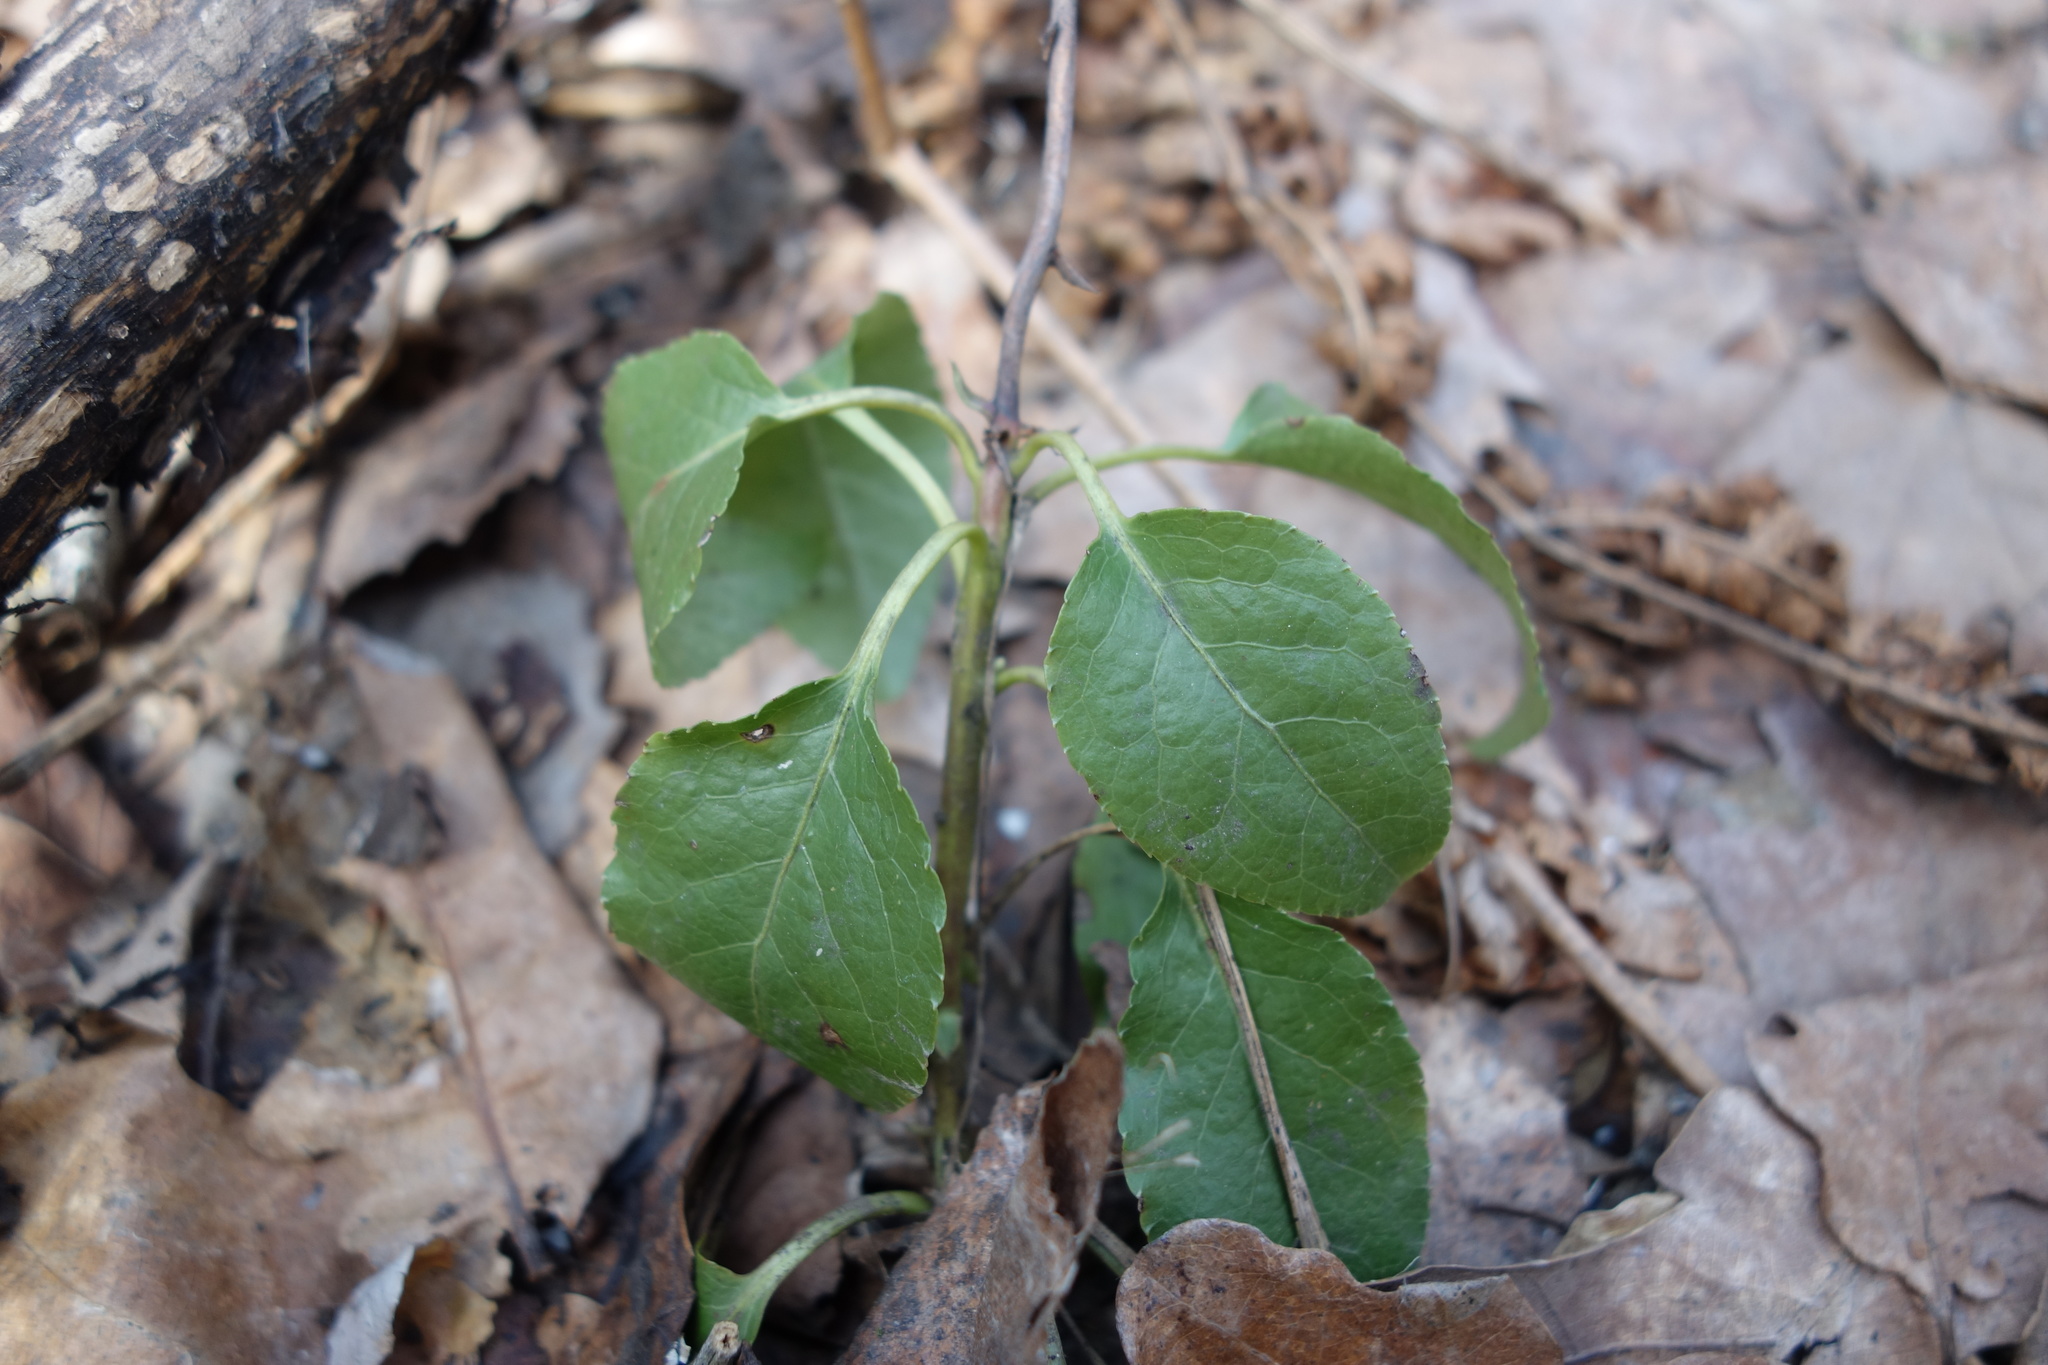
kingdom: Plantae
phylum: Tracheophyta
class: Magnoliopsida
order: Ericales
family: Ericaceae
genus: Orthilia
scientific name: Orthilia secunda
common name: One-sided orthilia
